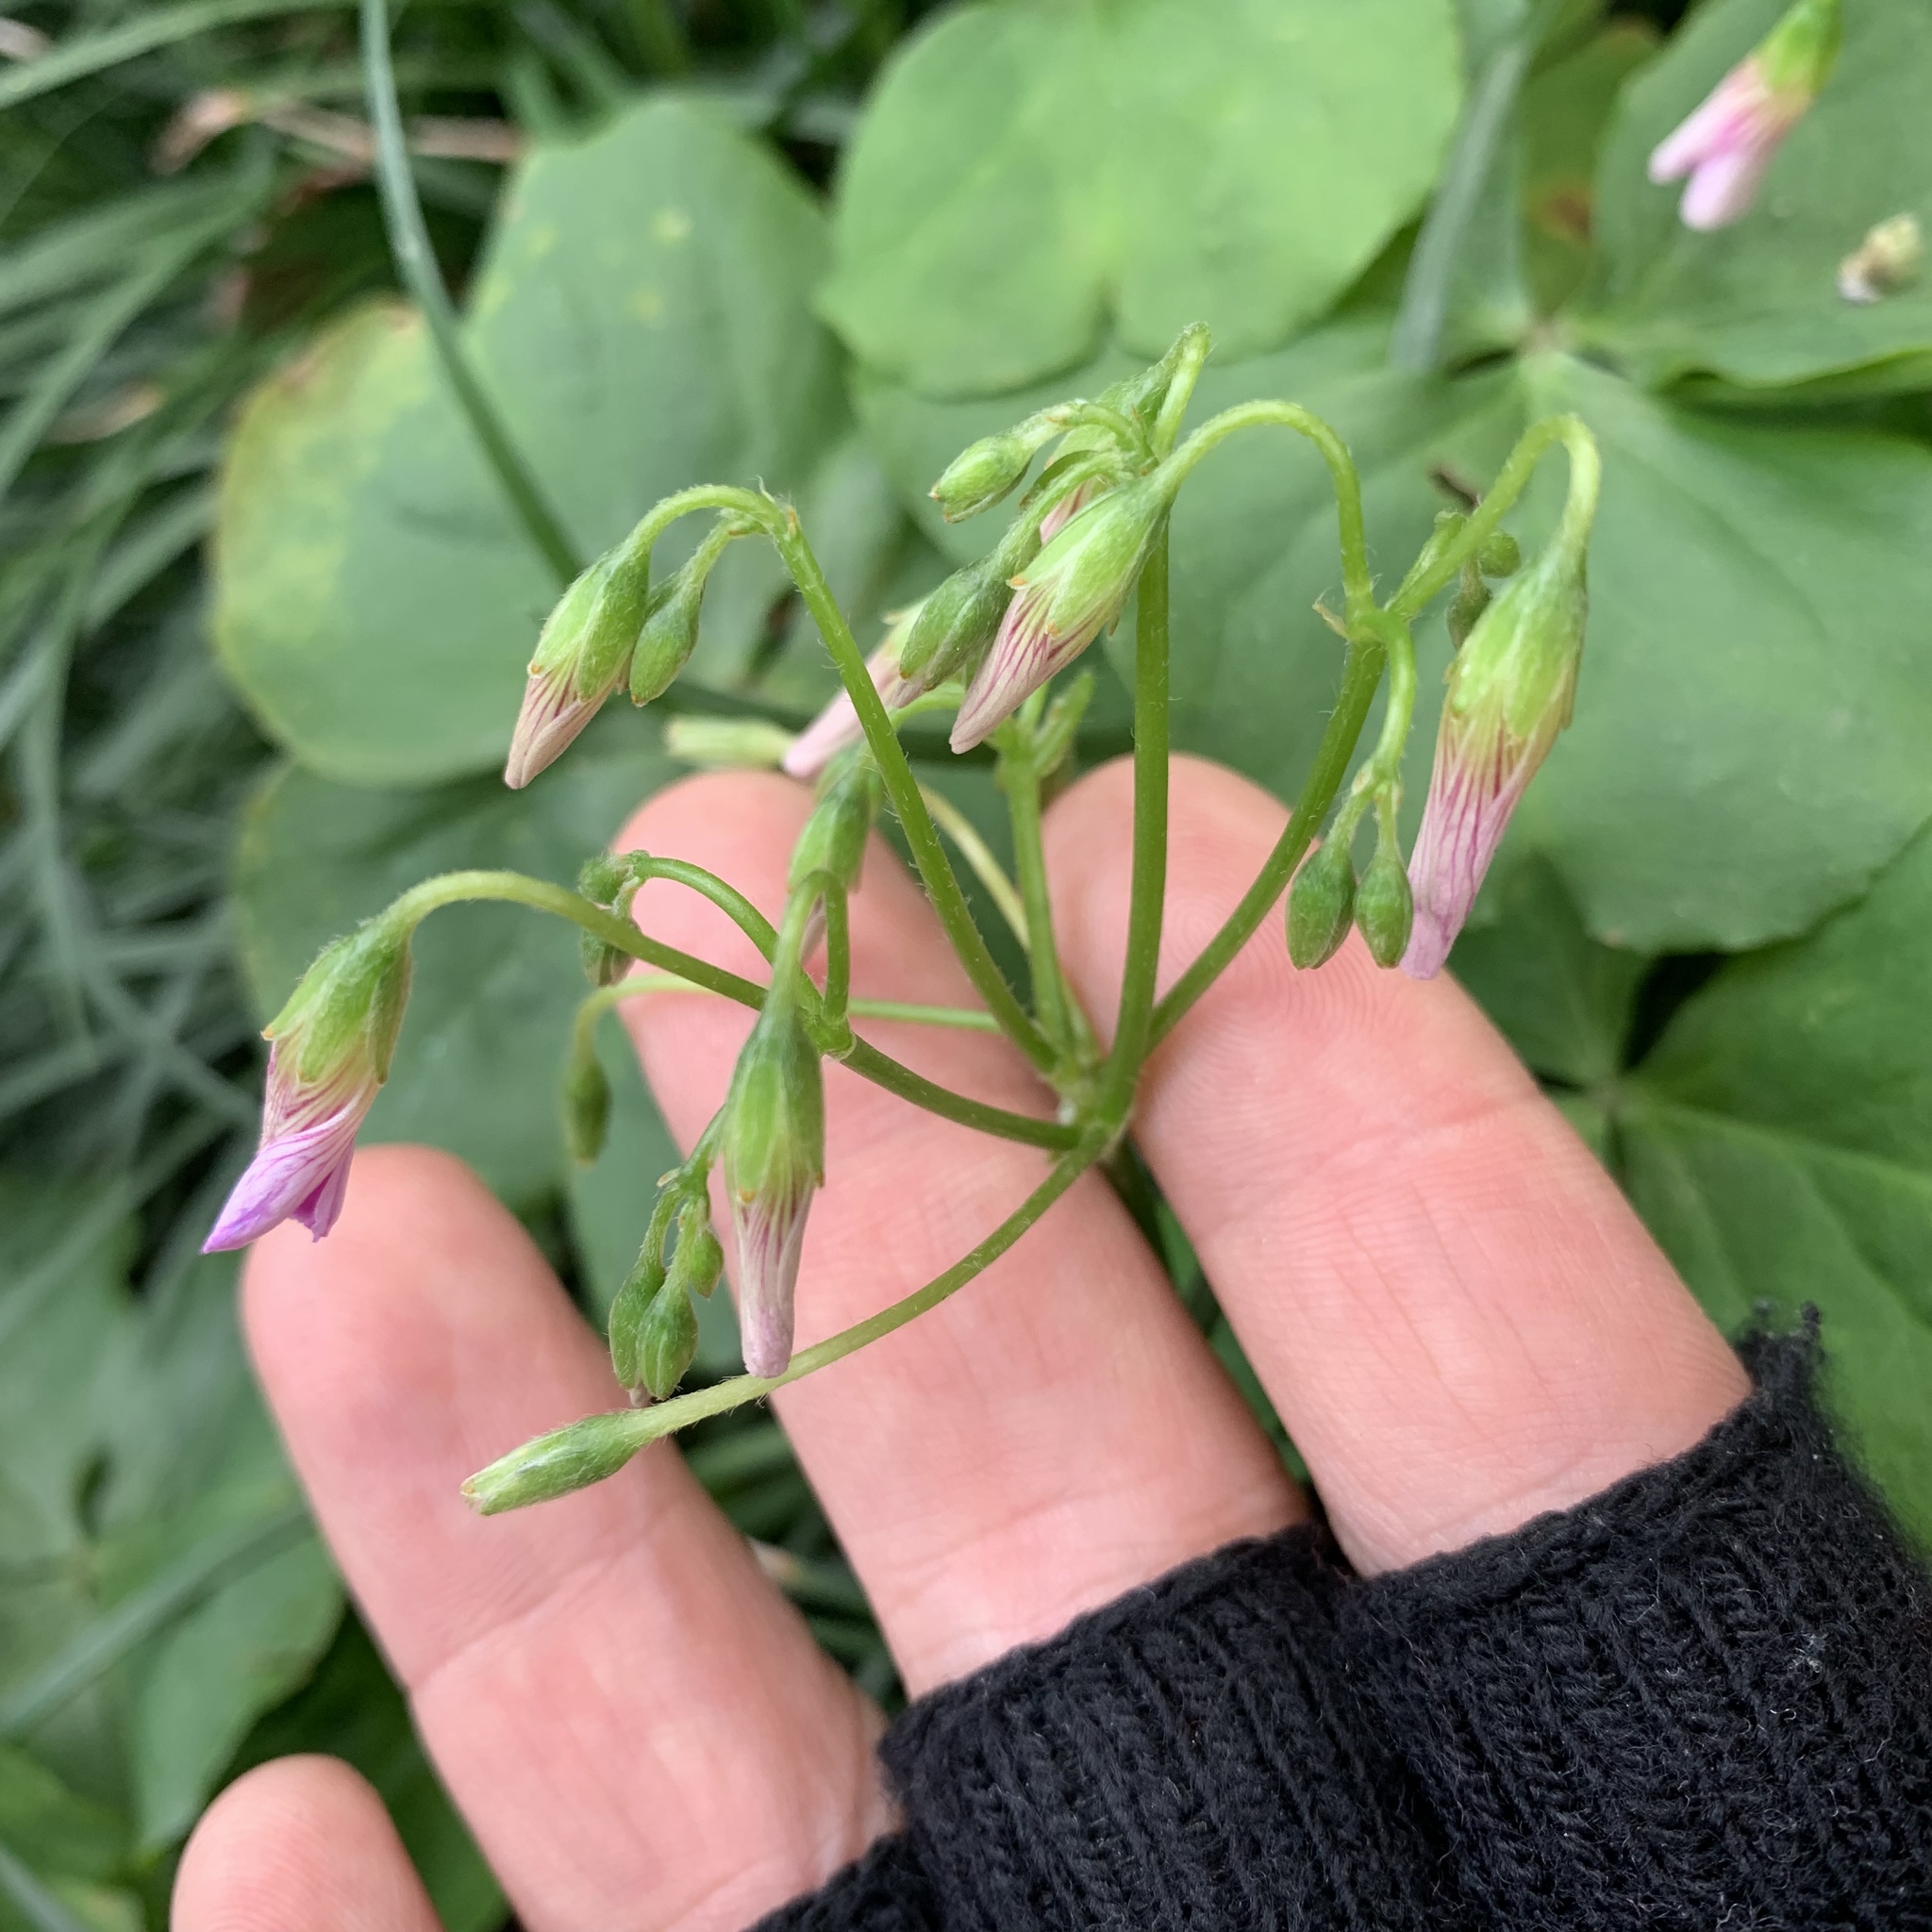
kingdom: Plantae
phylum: Tracheophyta
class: Magnoliopsida
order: Oxalidales
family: Oxalidaceae
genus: Oxalis
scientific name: Oxalis debilis
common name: Large-flowered pink-sorrel
